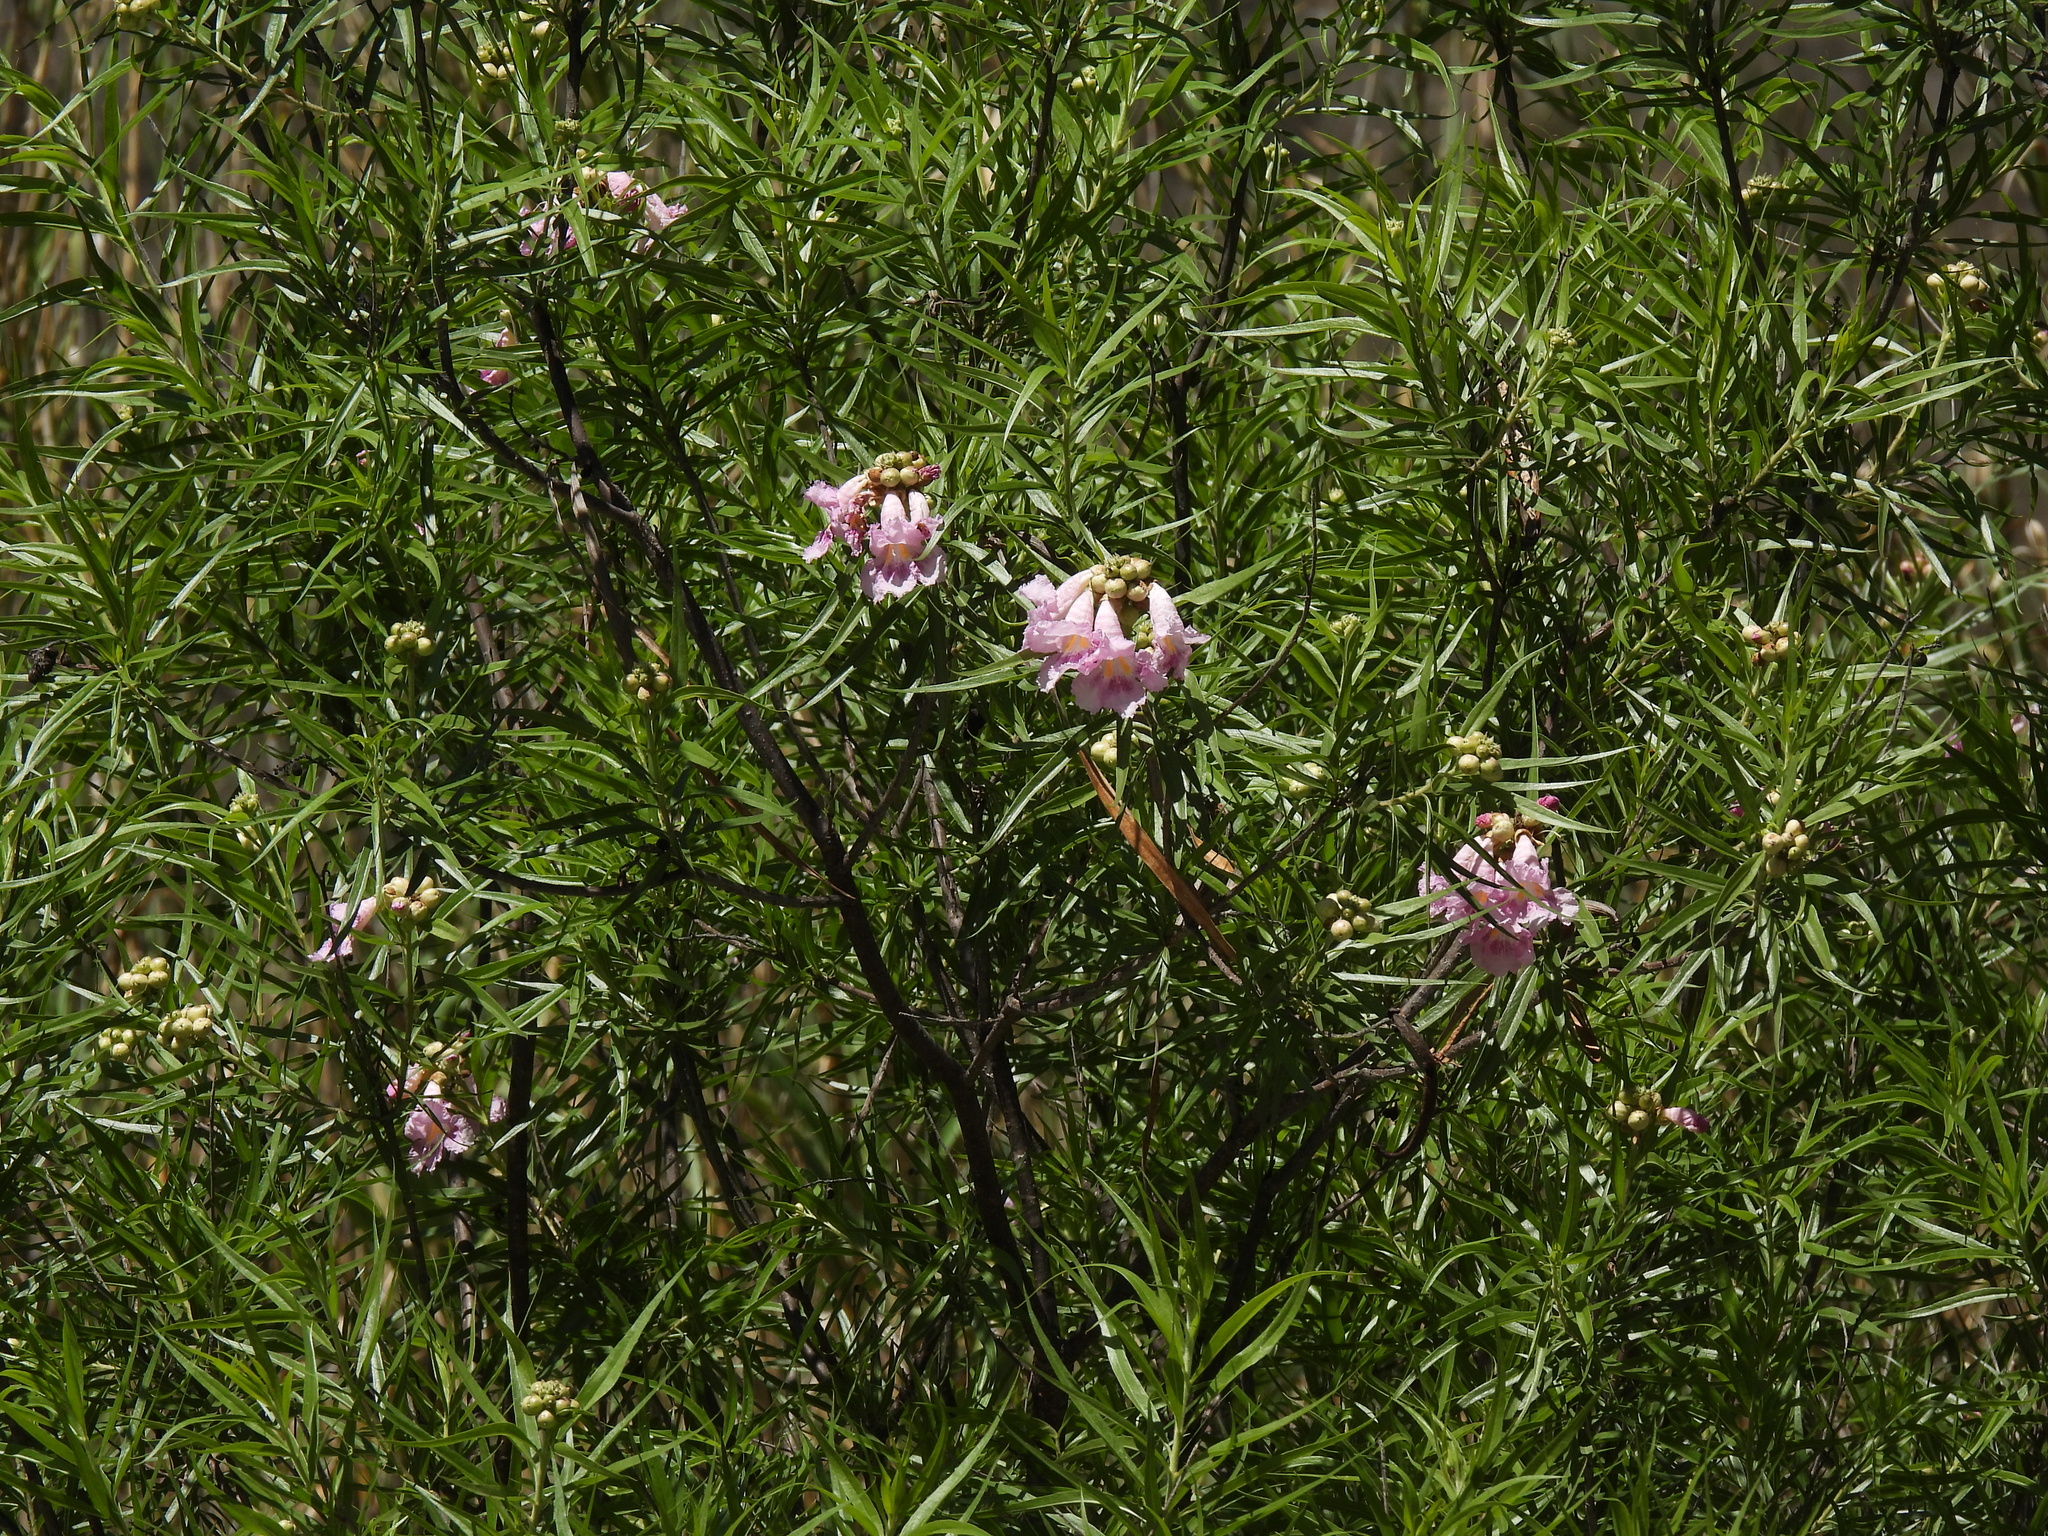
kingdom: Plantae
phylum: Tracheophyta
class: Magnoliopsida
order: Lamiales
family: Bignoniaceae
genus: Chilopsis
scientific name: Chilopsis linearis
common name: Desert-willow
